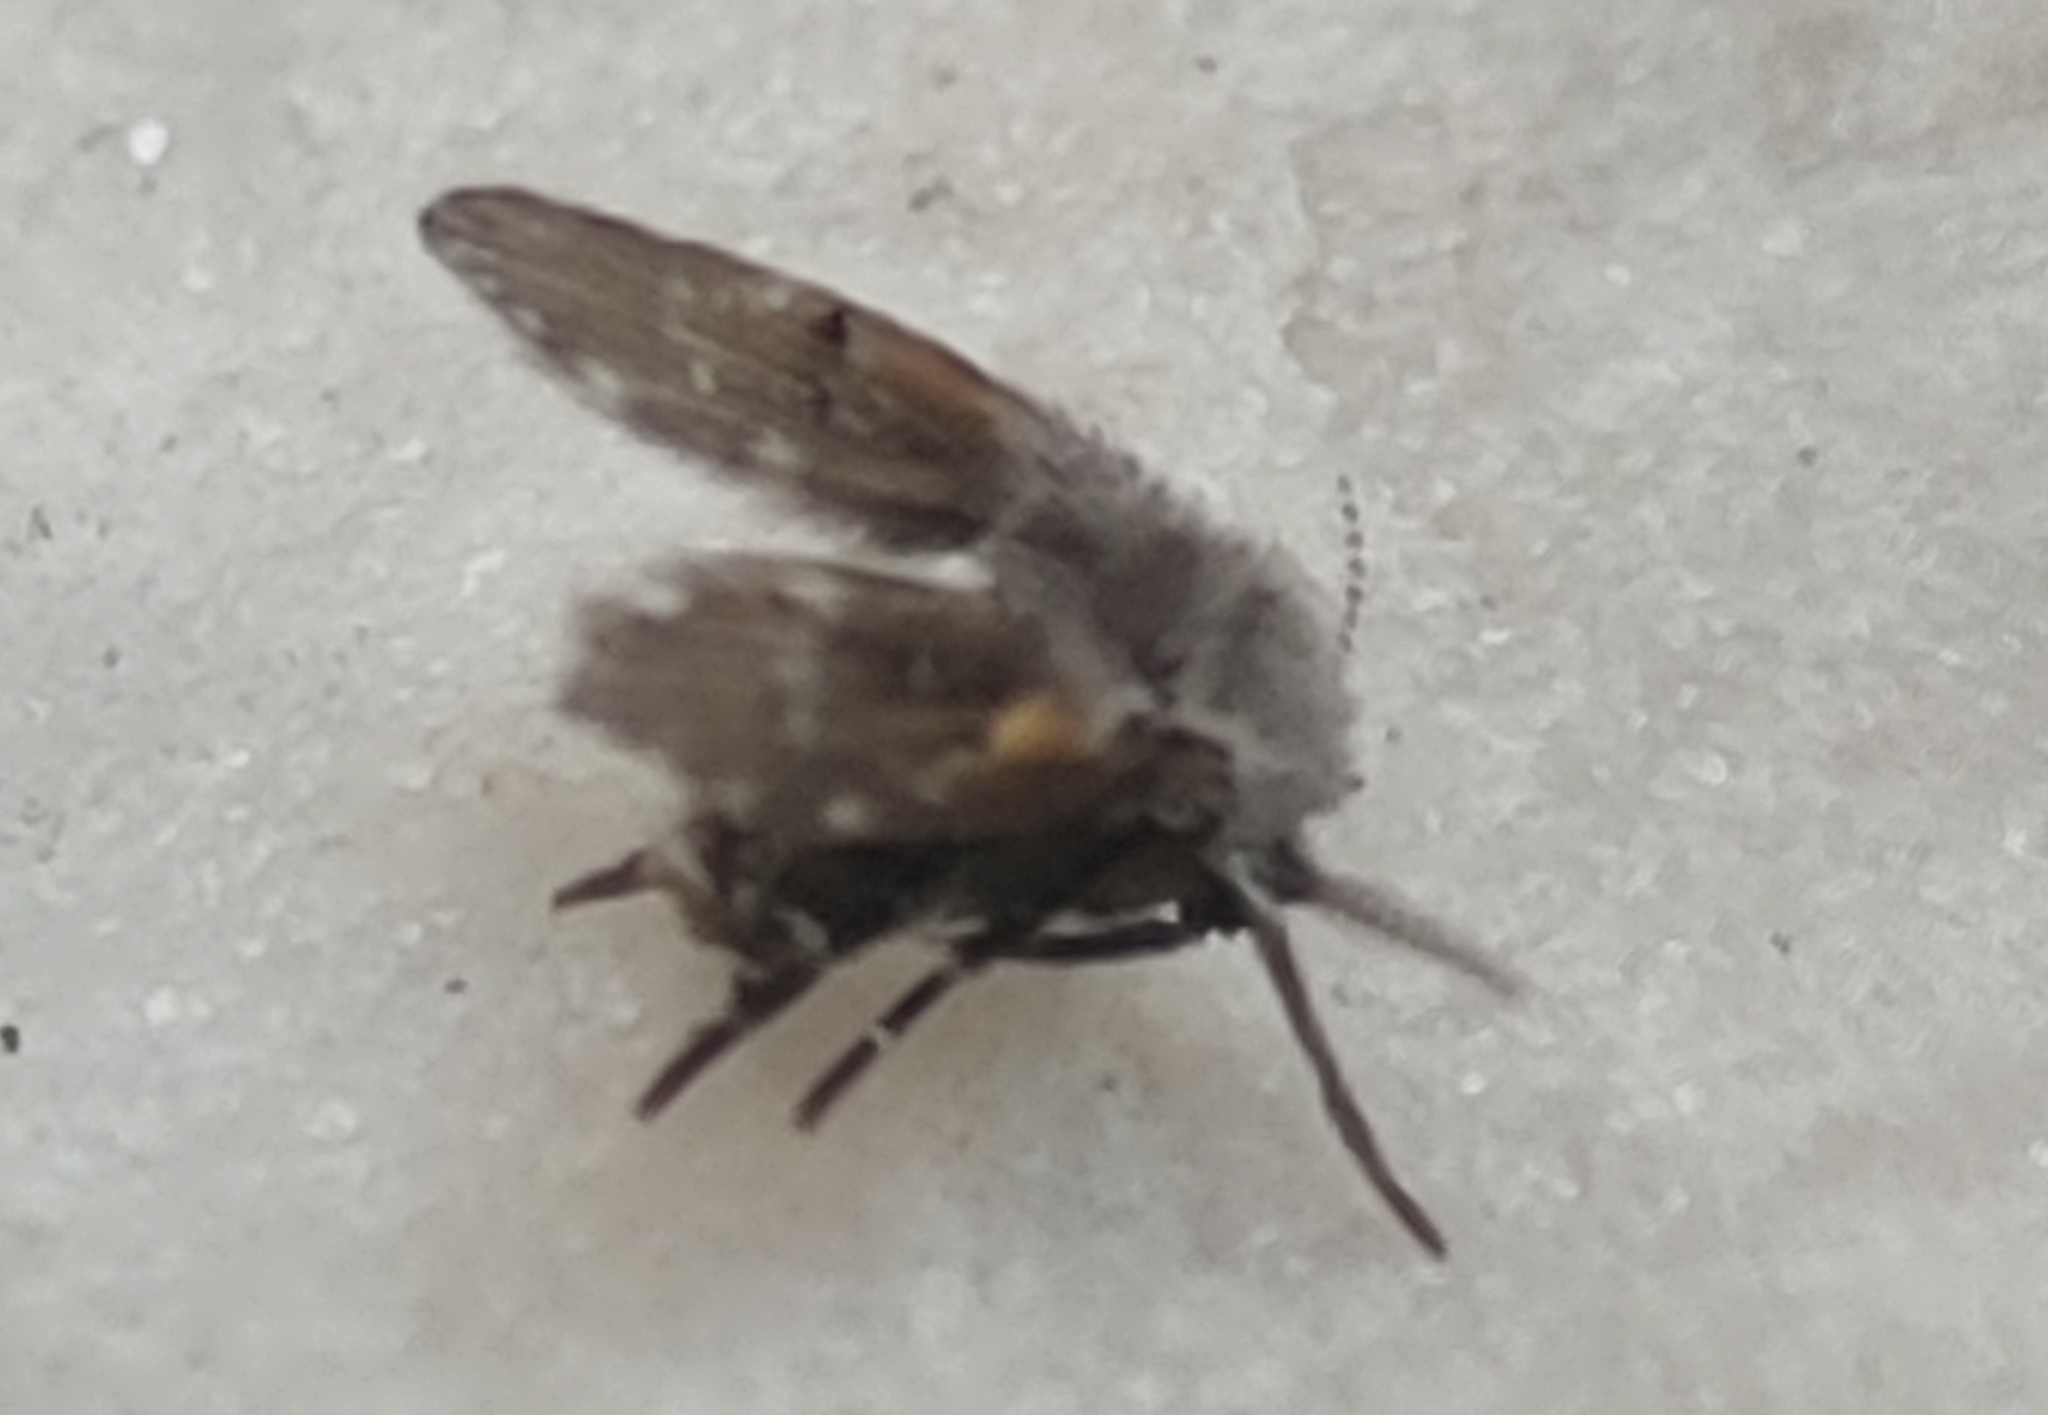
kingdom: Animalia
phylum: Arthropoda
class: Insecta
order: Diptera
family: Psychodidae
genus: Clogmia
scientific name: Clogmia albipunctatus
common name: White-spotted moth fly
